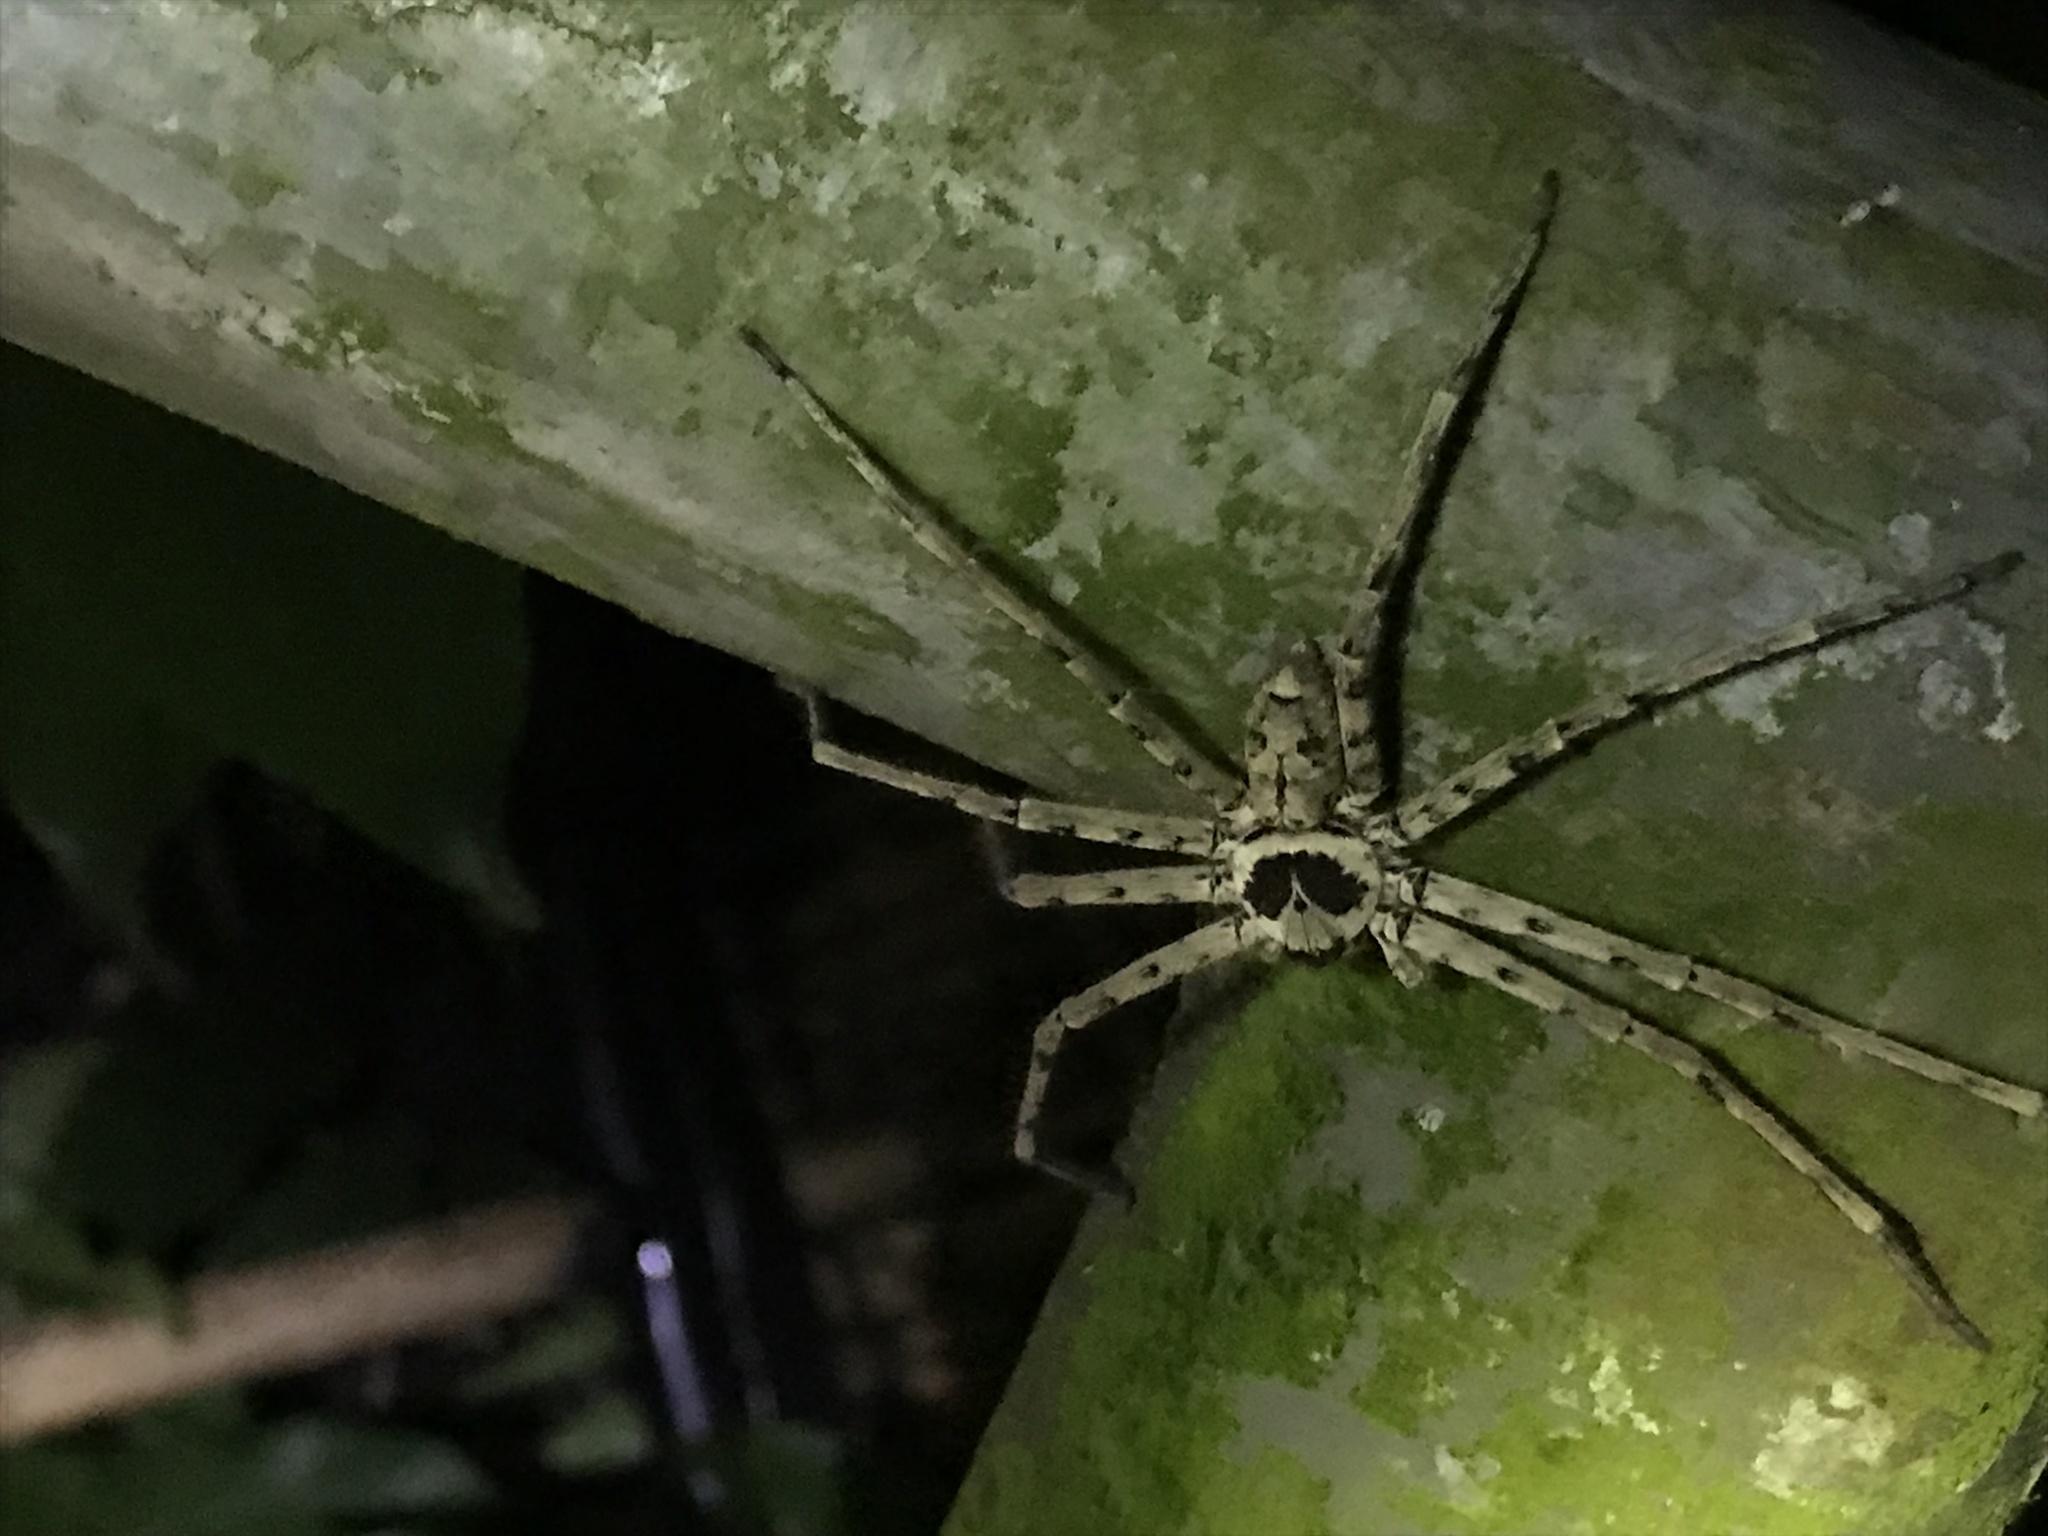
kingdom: Animalia
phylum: Arthropoda
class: Arachnida
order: Araneae
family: Sparassidae
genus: Heteropoda
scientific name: Heteropoda venatoria
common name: Huntsman spider
